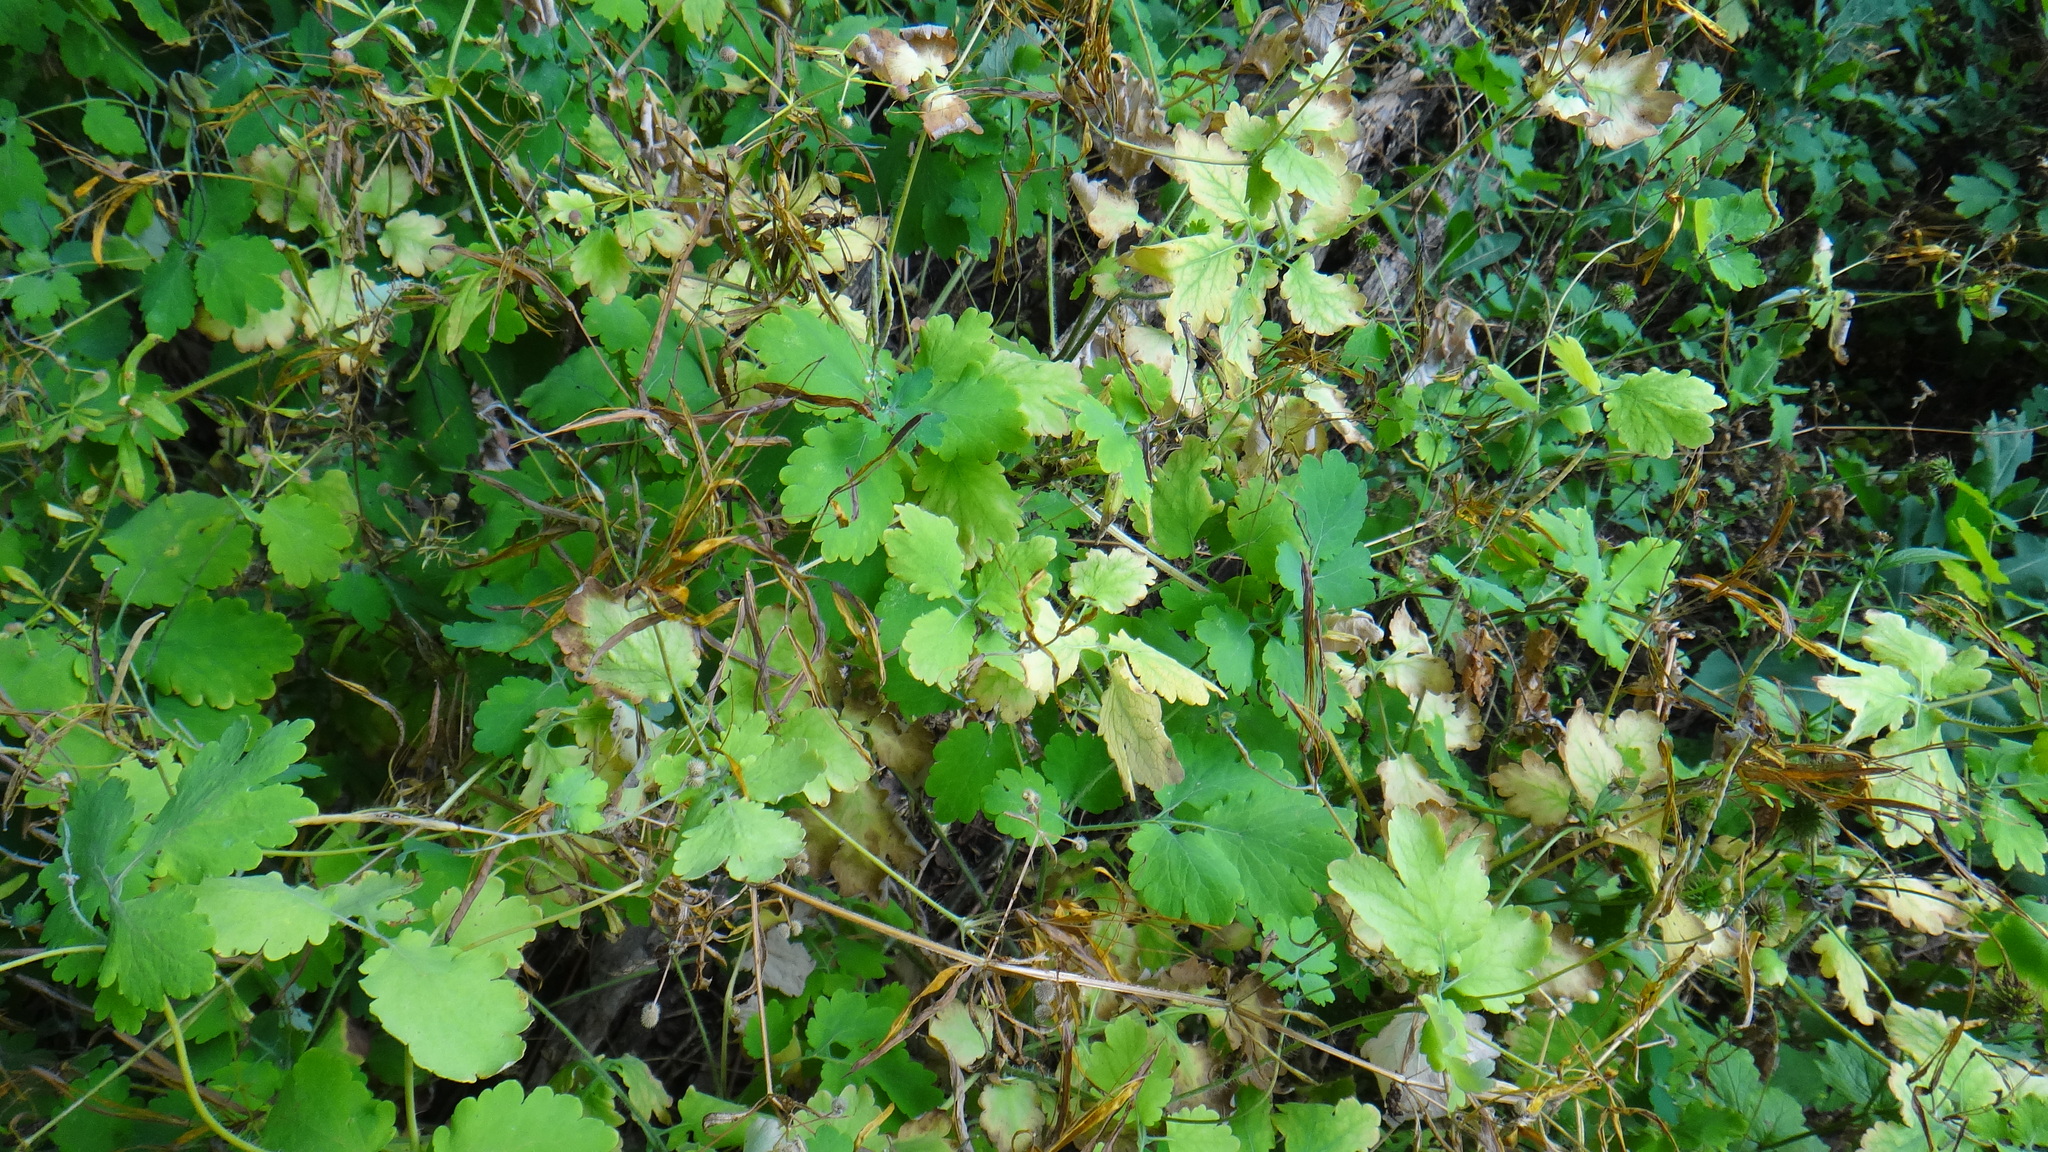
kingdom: Plantae
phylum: Tracheophyta
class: Magnoliopsida
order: Ranunculales
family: Papaveraceae
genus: Chelidonium
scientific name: Chelidonium majus
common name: Greater celandine
